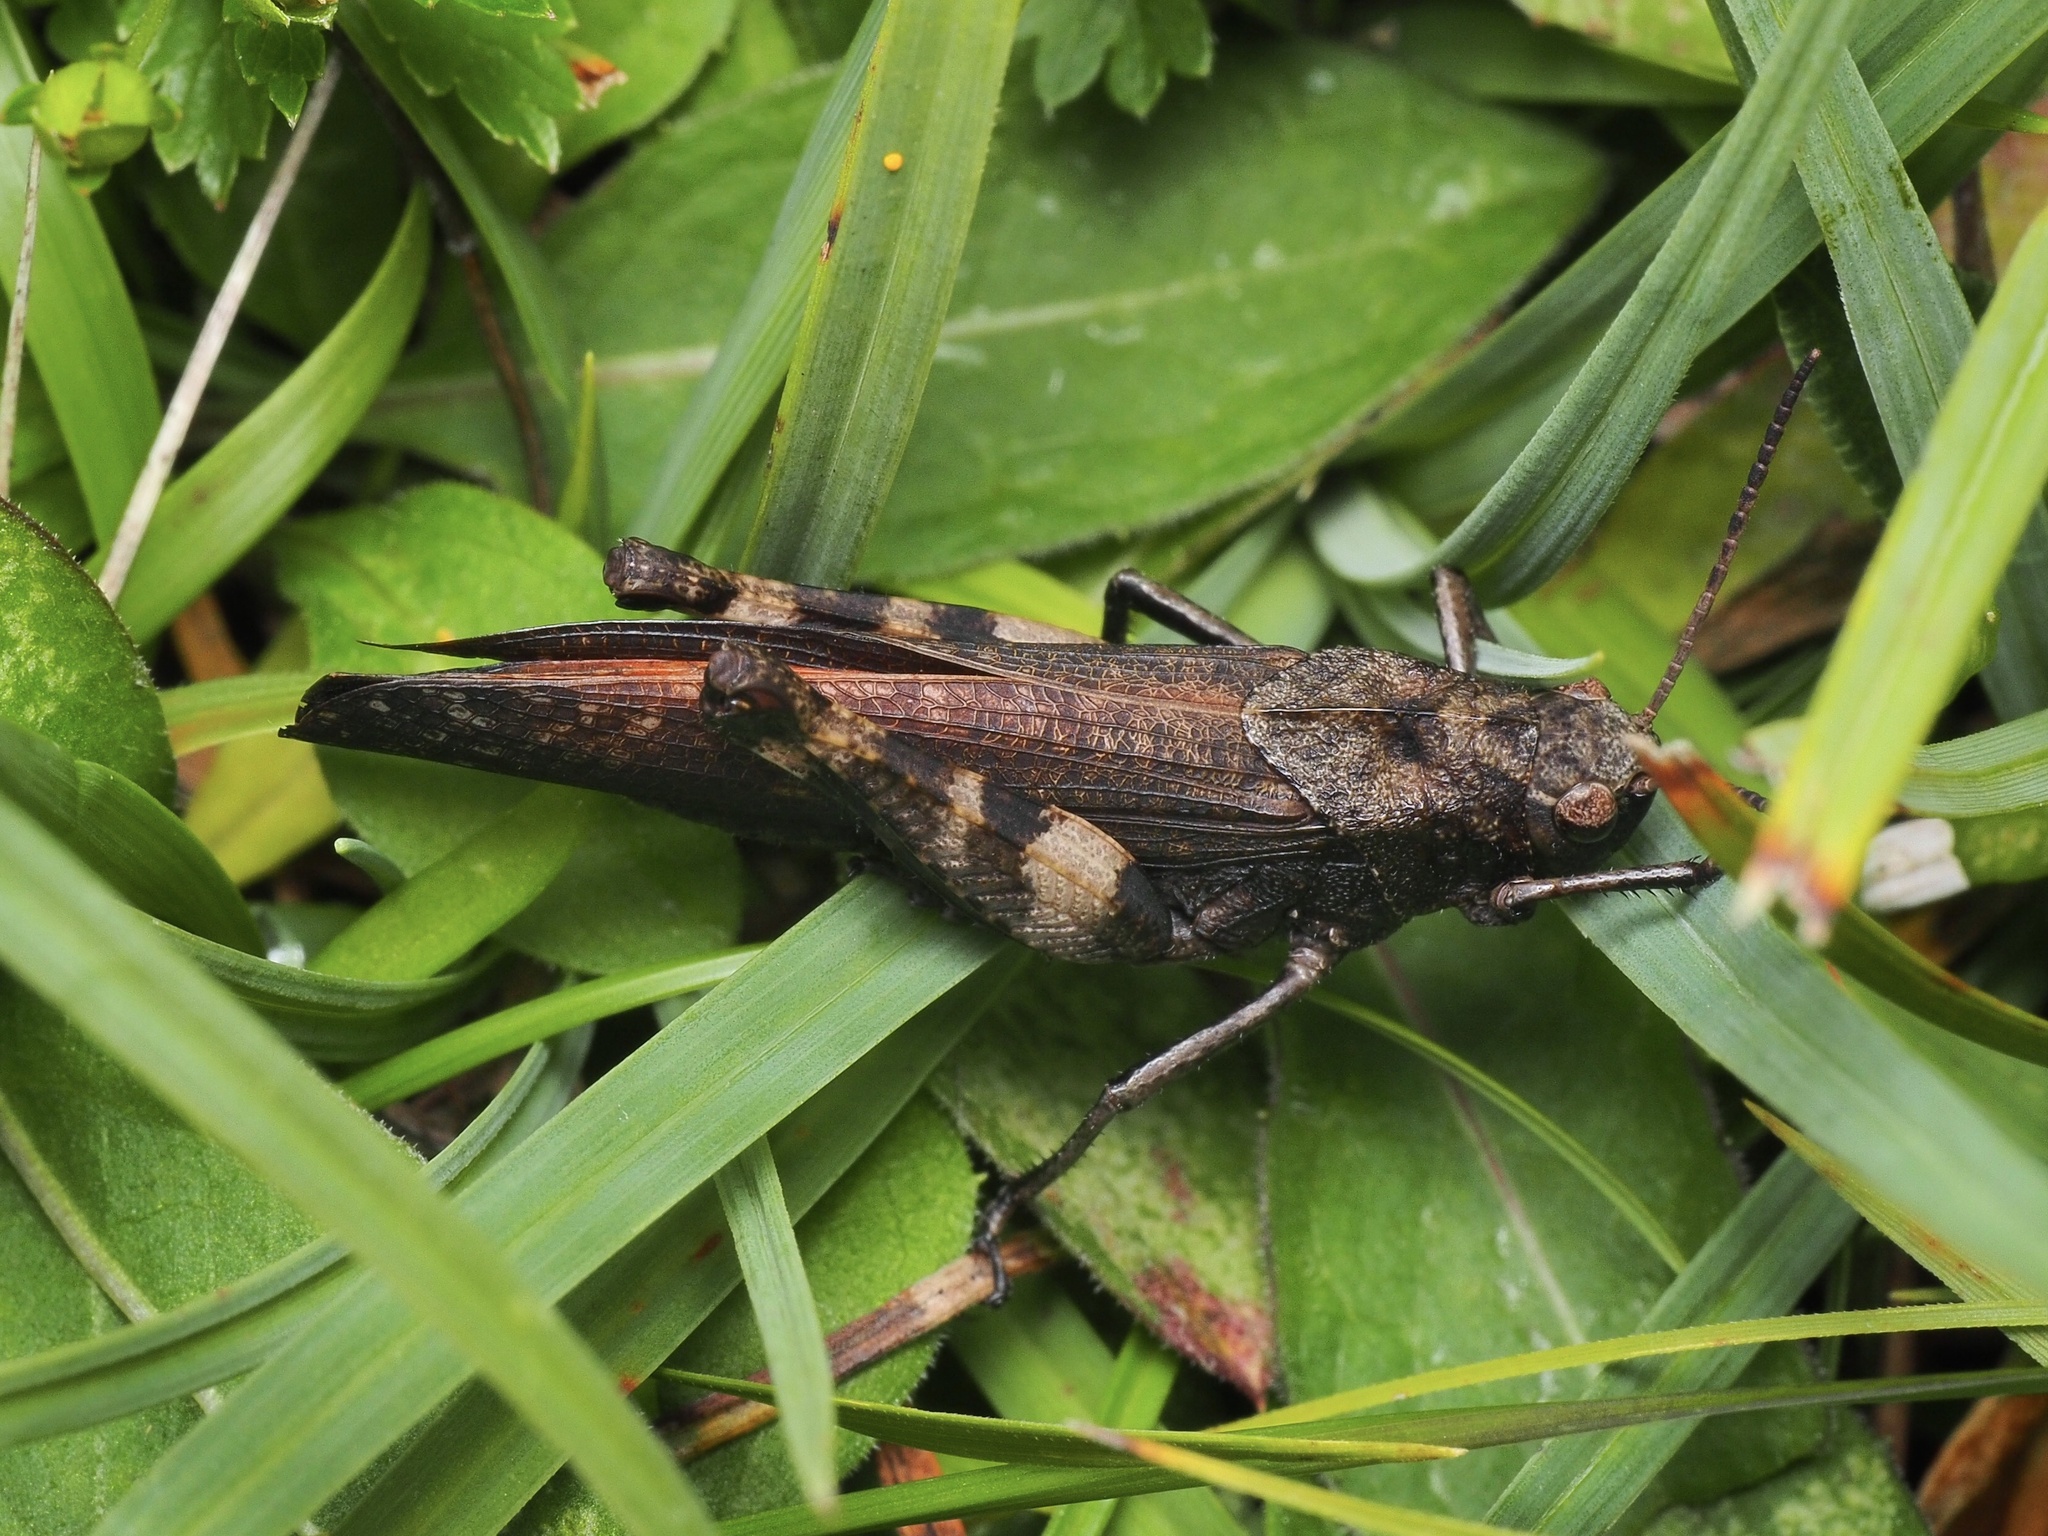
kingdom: Animalia
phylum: Arthropoda
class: Insecta
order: Orthoptera
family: Acrididae
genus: Psophus
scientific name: Psophus stridulus
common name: Rattle grasshopper
